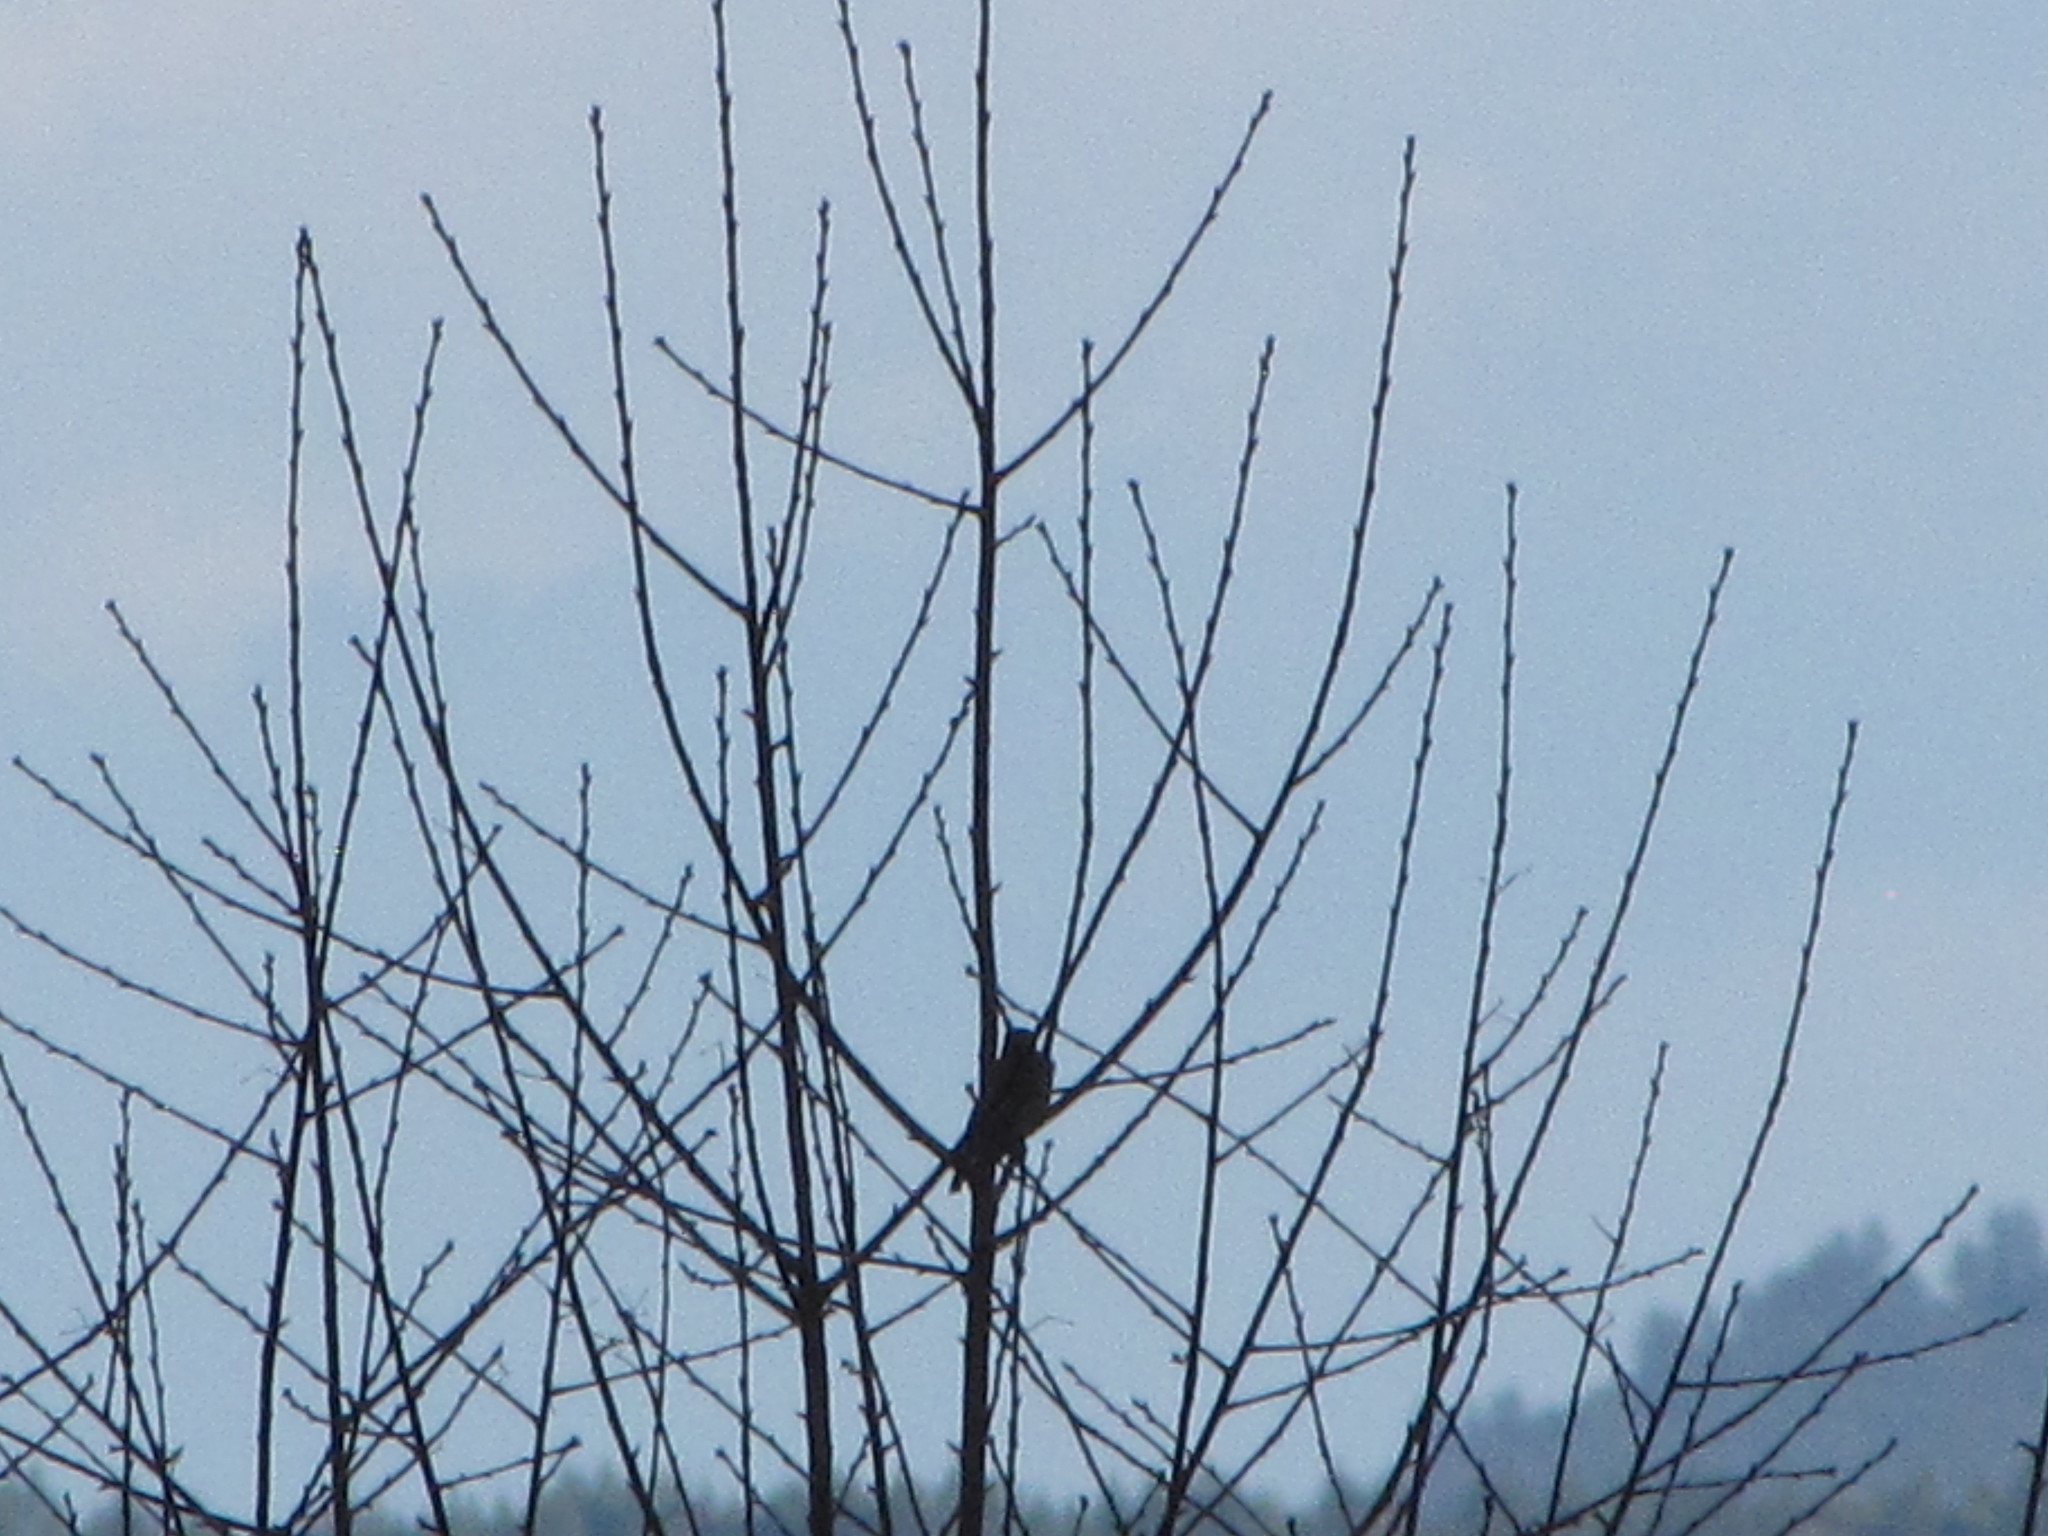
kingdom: Animalia
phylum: Chordata
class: Aves
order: Piciformes
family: Picidae
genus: Colaptes
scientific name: Colaptes auratus
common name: Northern flicker
